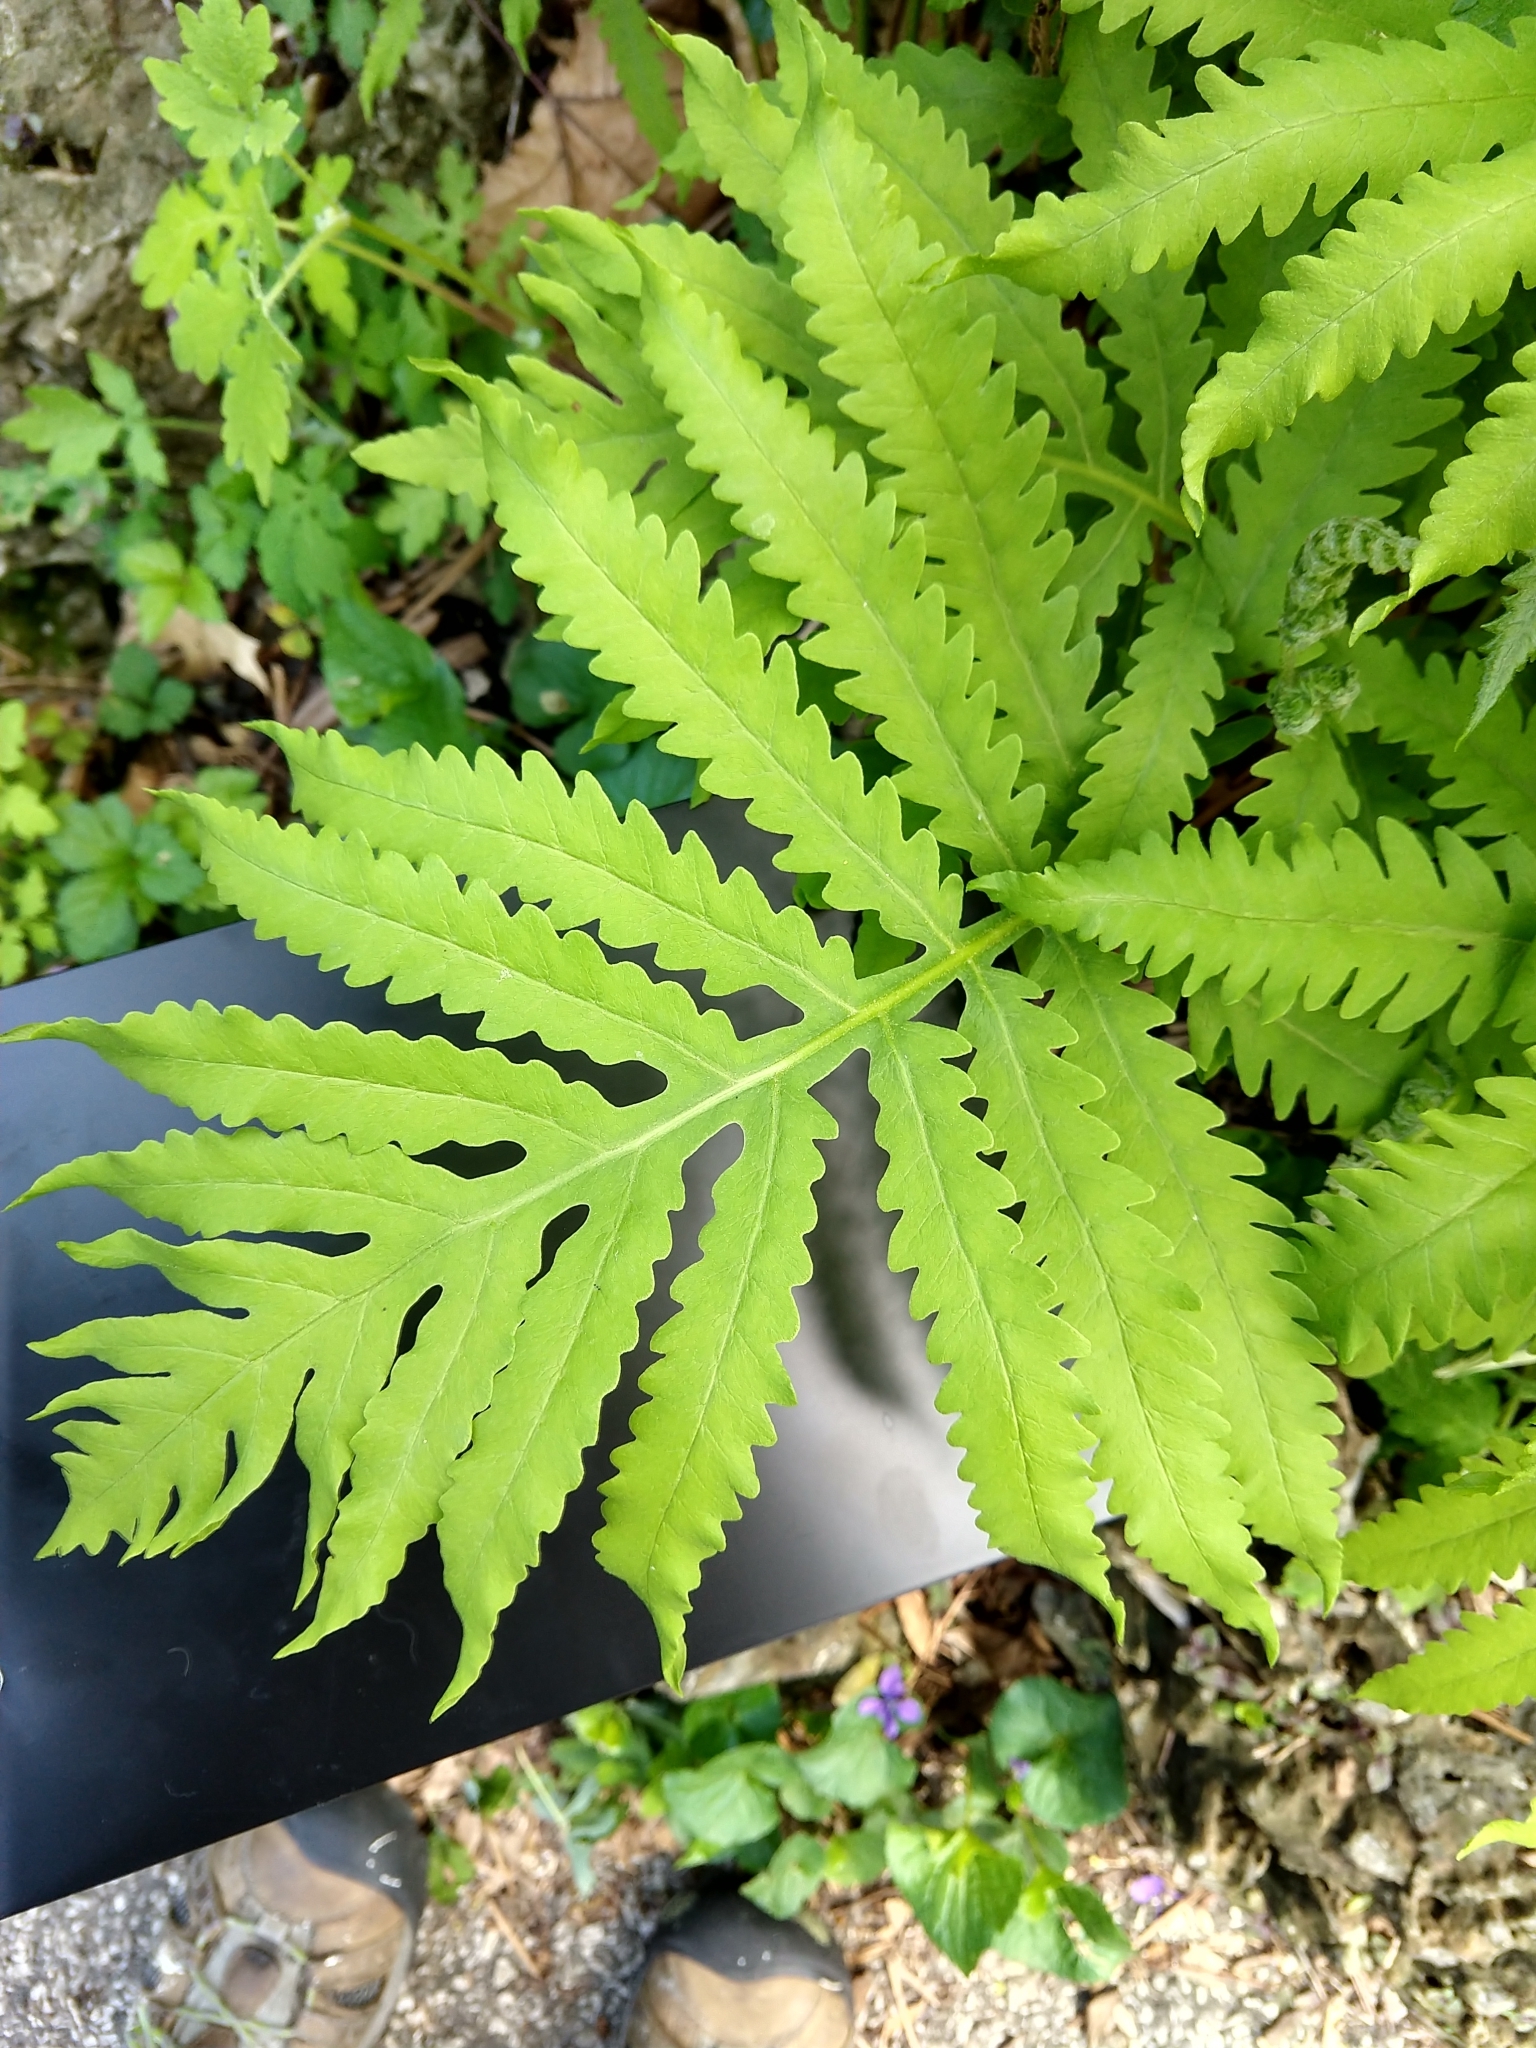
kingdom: Plantae
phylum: Tracheophyta
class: Polypodiopsida
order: Polypodiales
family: Onocleaceae
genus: Onoclea
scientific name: Onoclea sensibilis
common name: Sensitive fern
